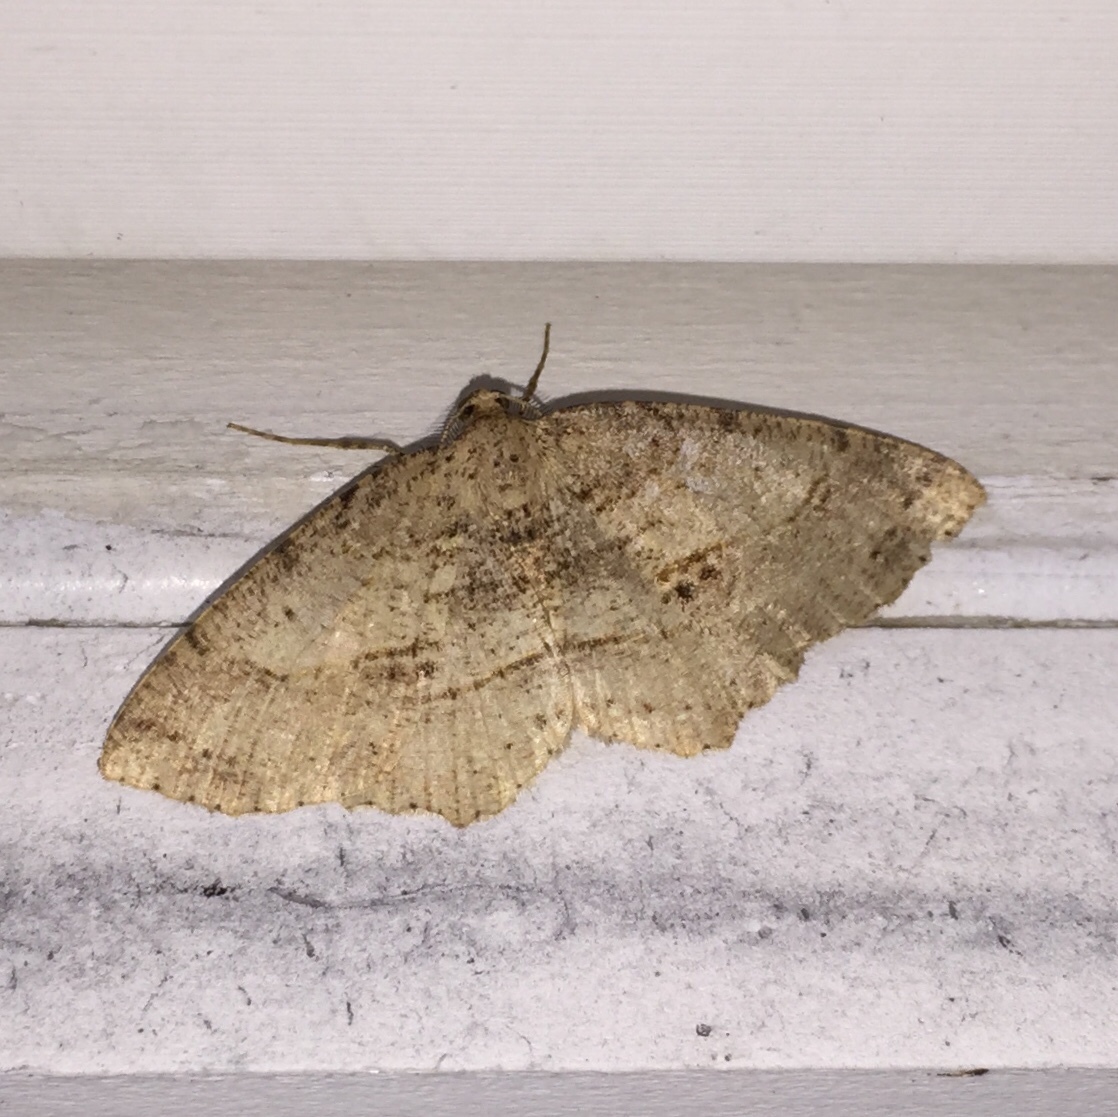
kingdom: Animalia
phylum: Arthropoda
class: Insecta
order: Lepidoptera
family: Geometridae
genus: Melanolophia
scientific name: Melanolophia signataria
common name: Signate melanolophia
